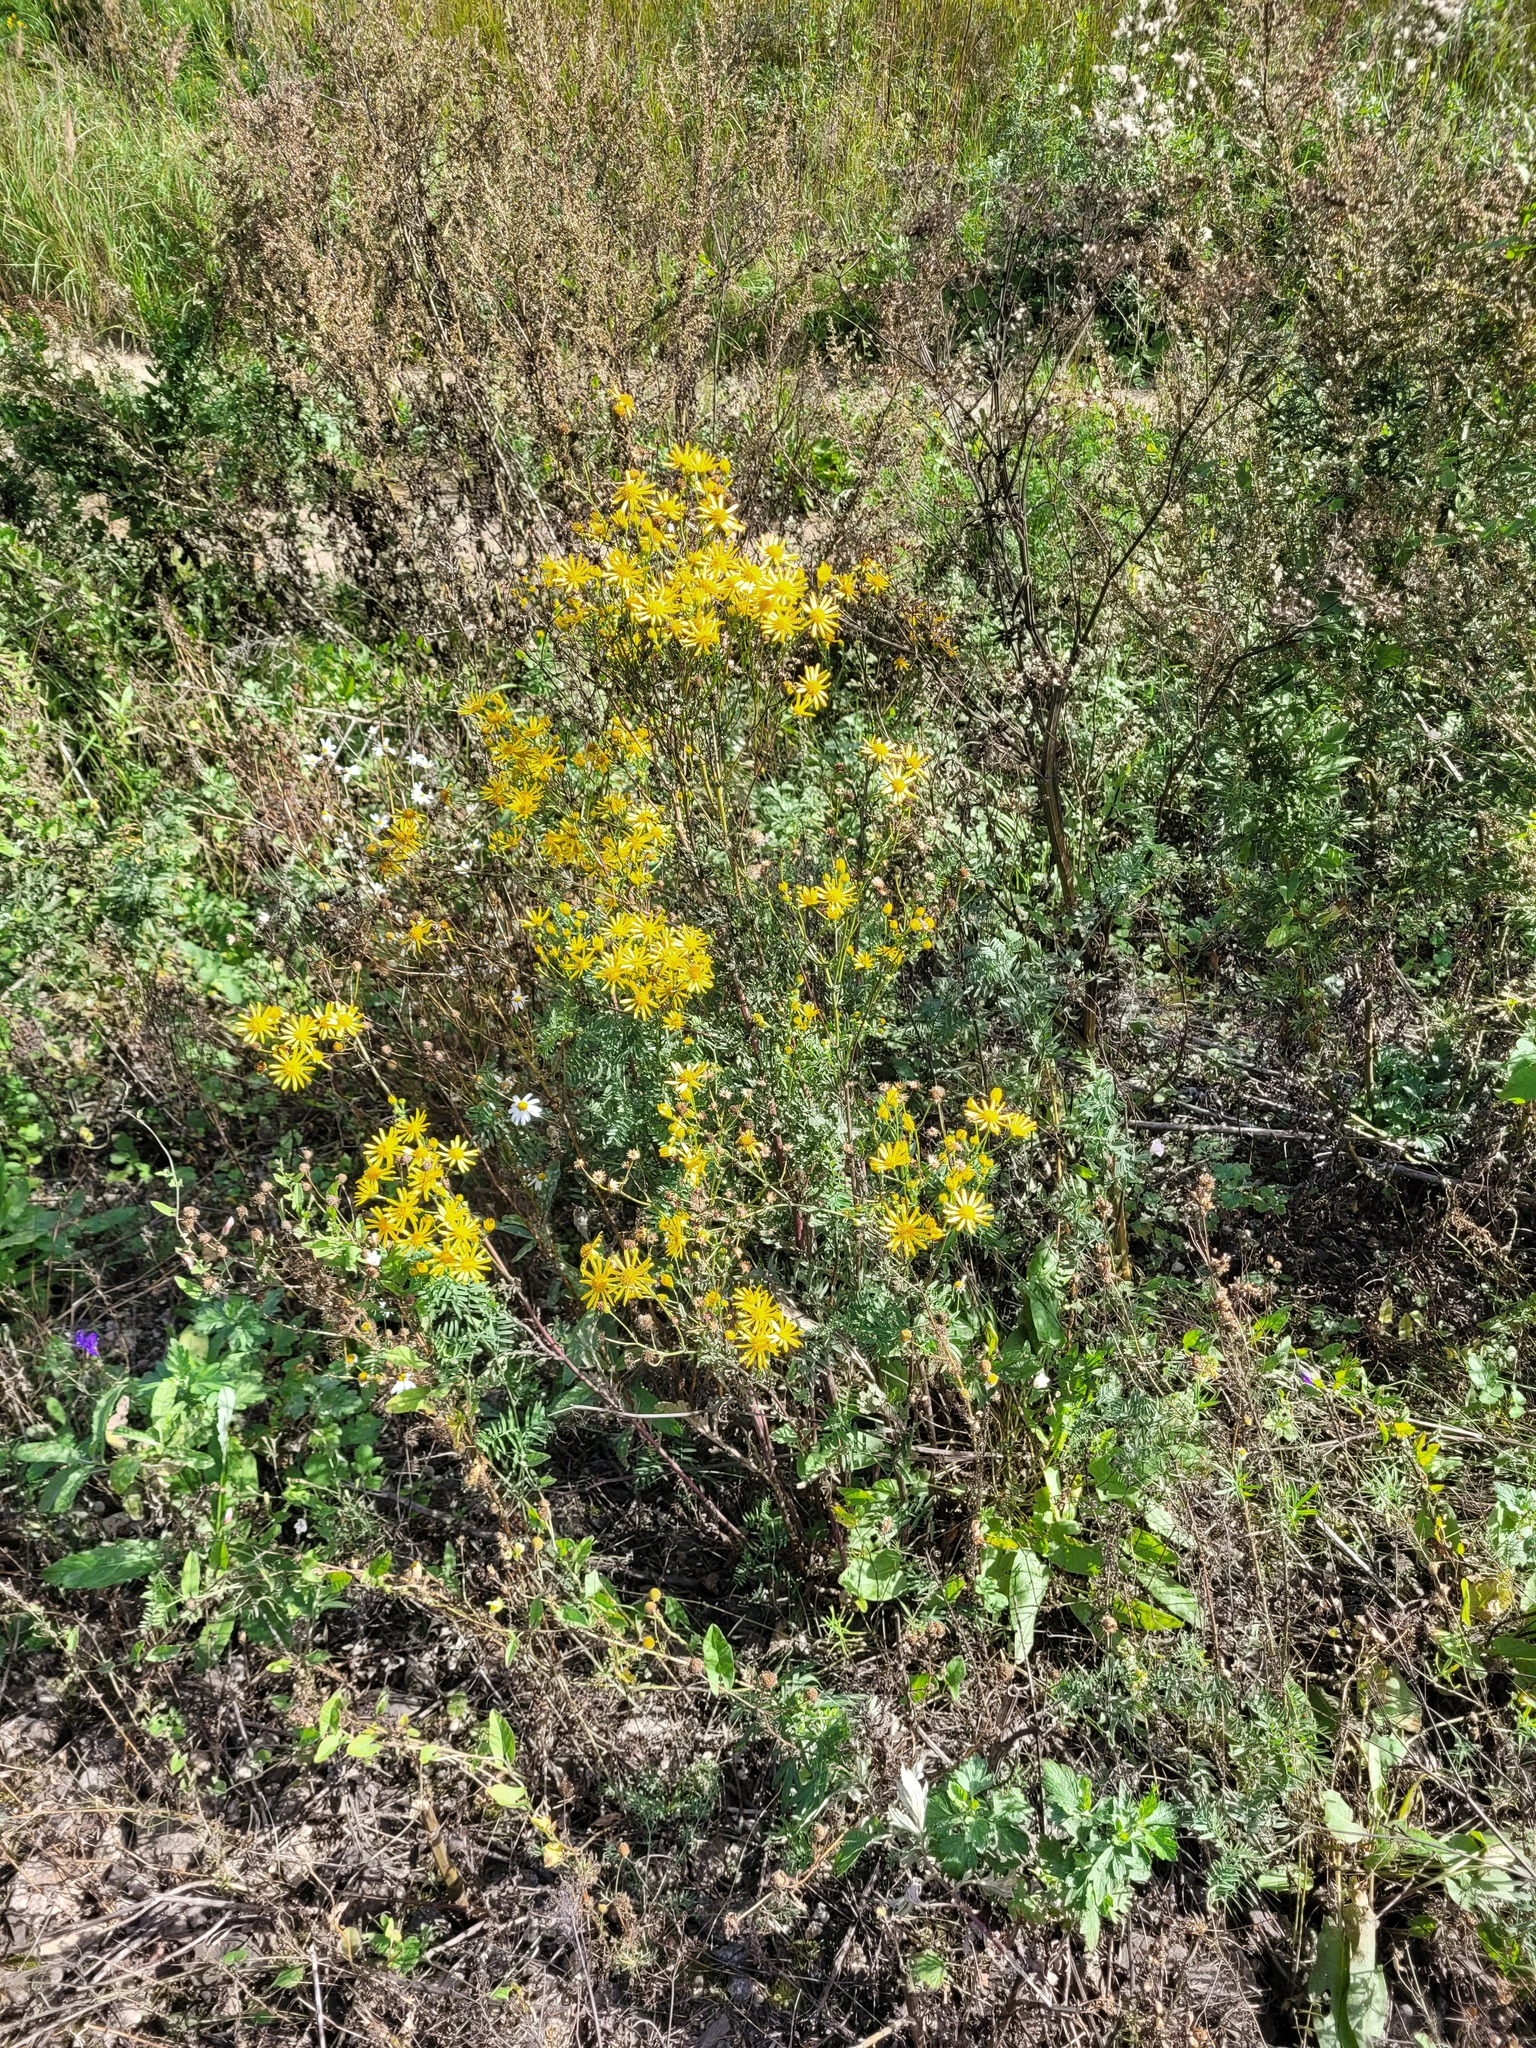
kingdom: Plantae
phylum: Tracheophyta
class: Magnoliopsida
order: Asterales
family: Asteraceae
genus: Jacobaea
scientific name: Jacobaea vulgaris
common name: Stinking willie
